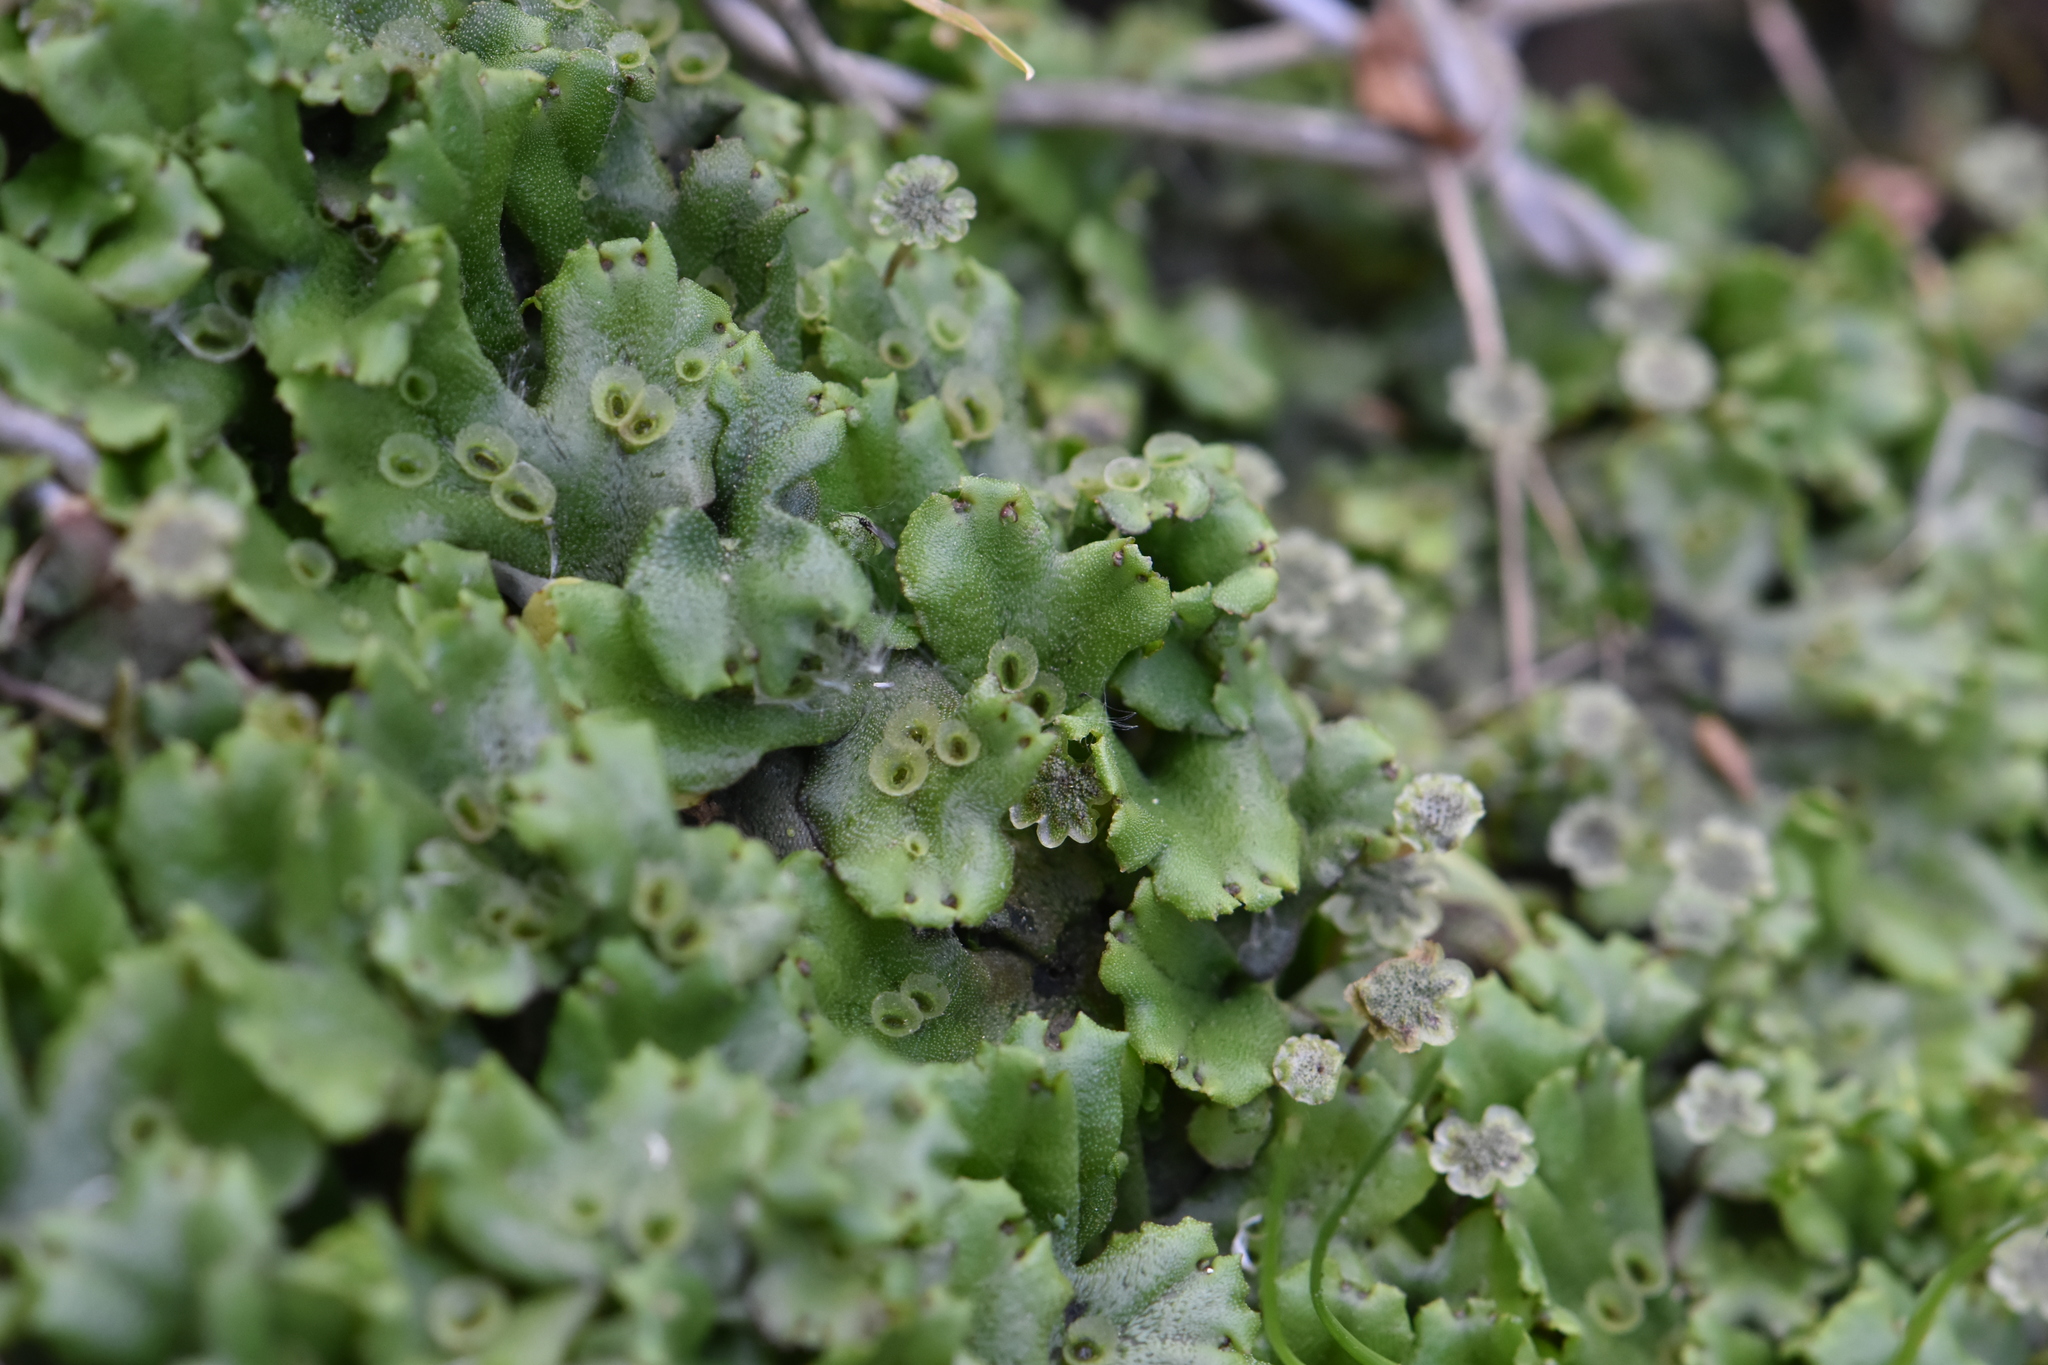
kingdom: Plantae
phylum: Marchantiophyta
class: Marchantiopsida
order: Marchantiales
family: Marchantiaceae
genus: Marchantia
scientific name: Marchantia polymorpha
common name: Common liverwort
